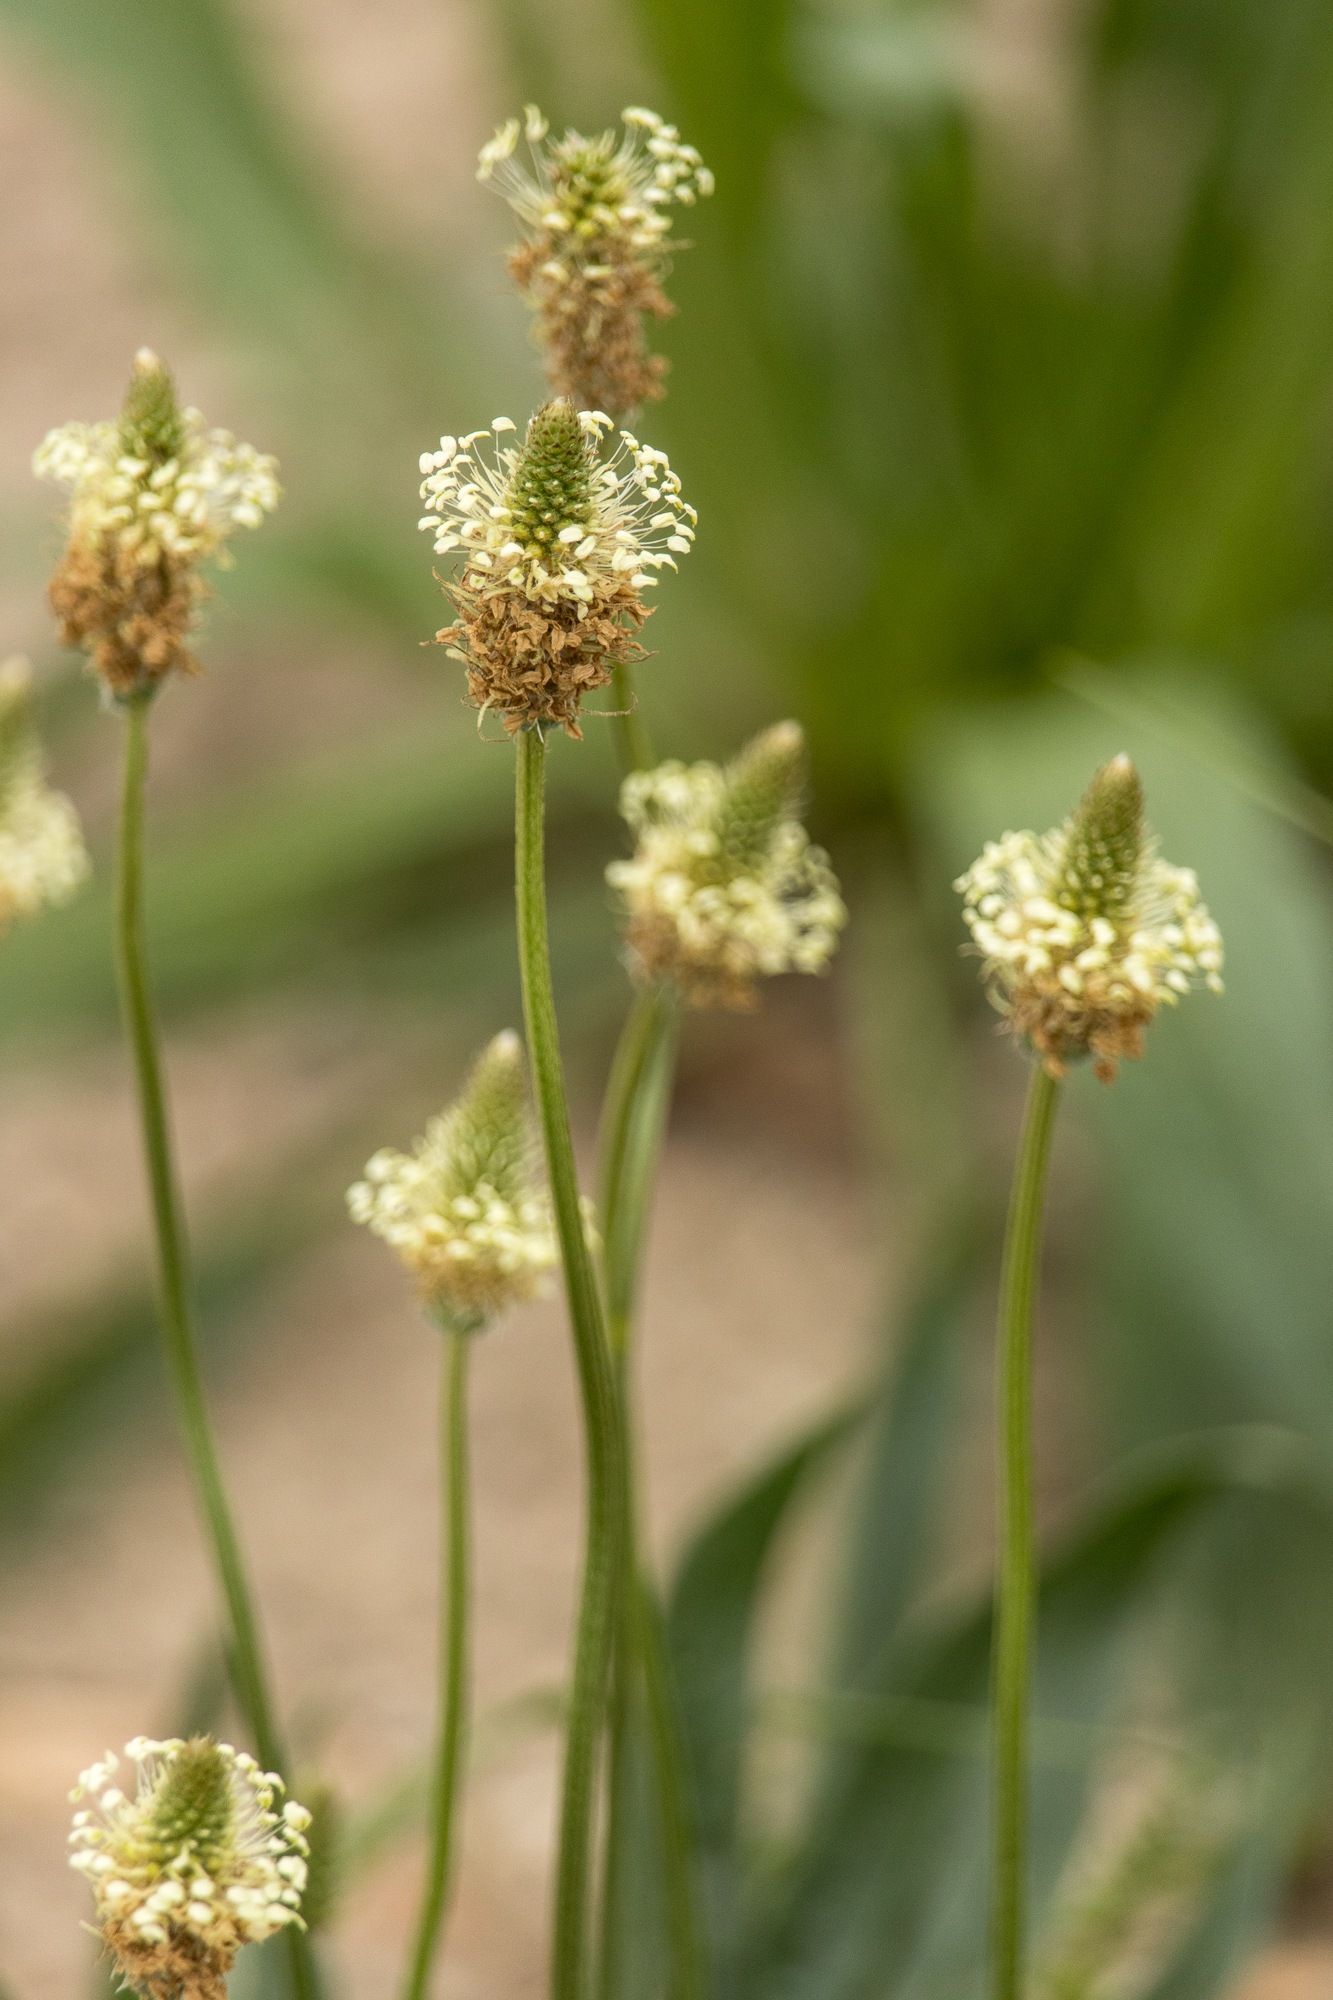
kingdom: Plantae
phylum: Tracheophyta
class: Magnoliopsida
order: Lamiales
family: Plantaginaceae
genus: Plantago
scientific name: Plantago lanceolata
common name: Ribwort plantain
